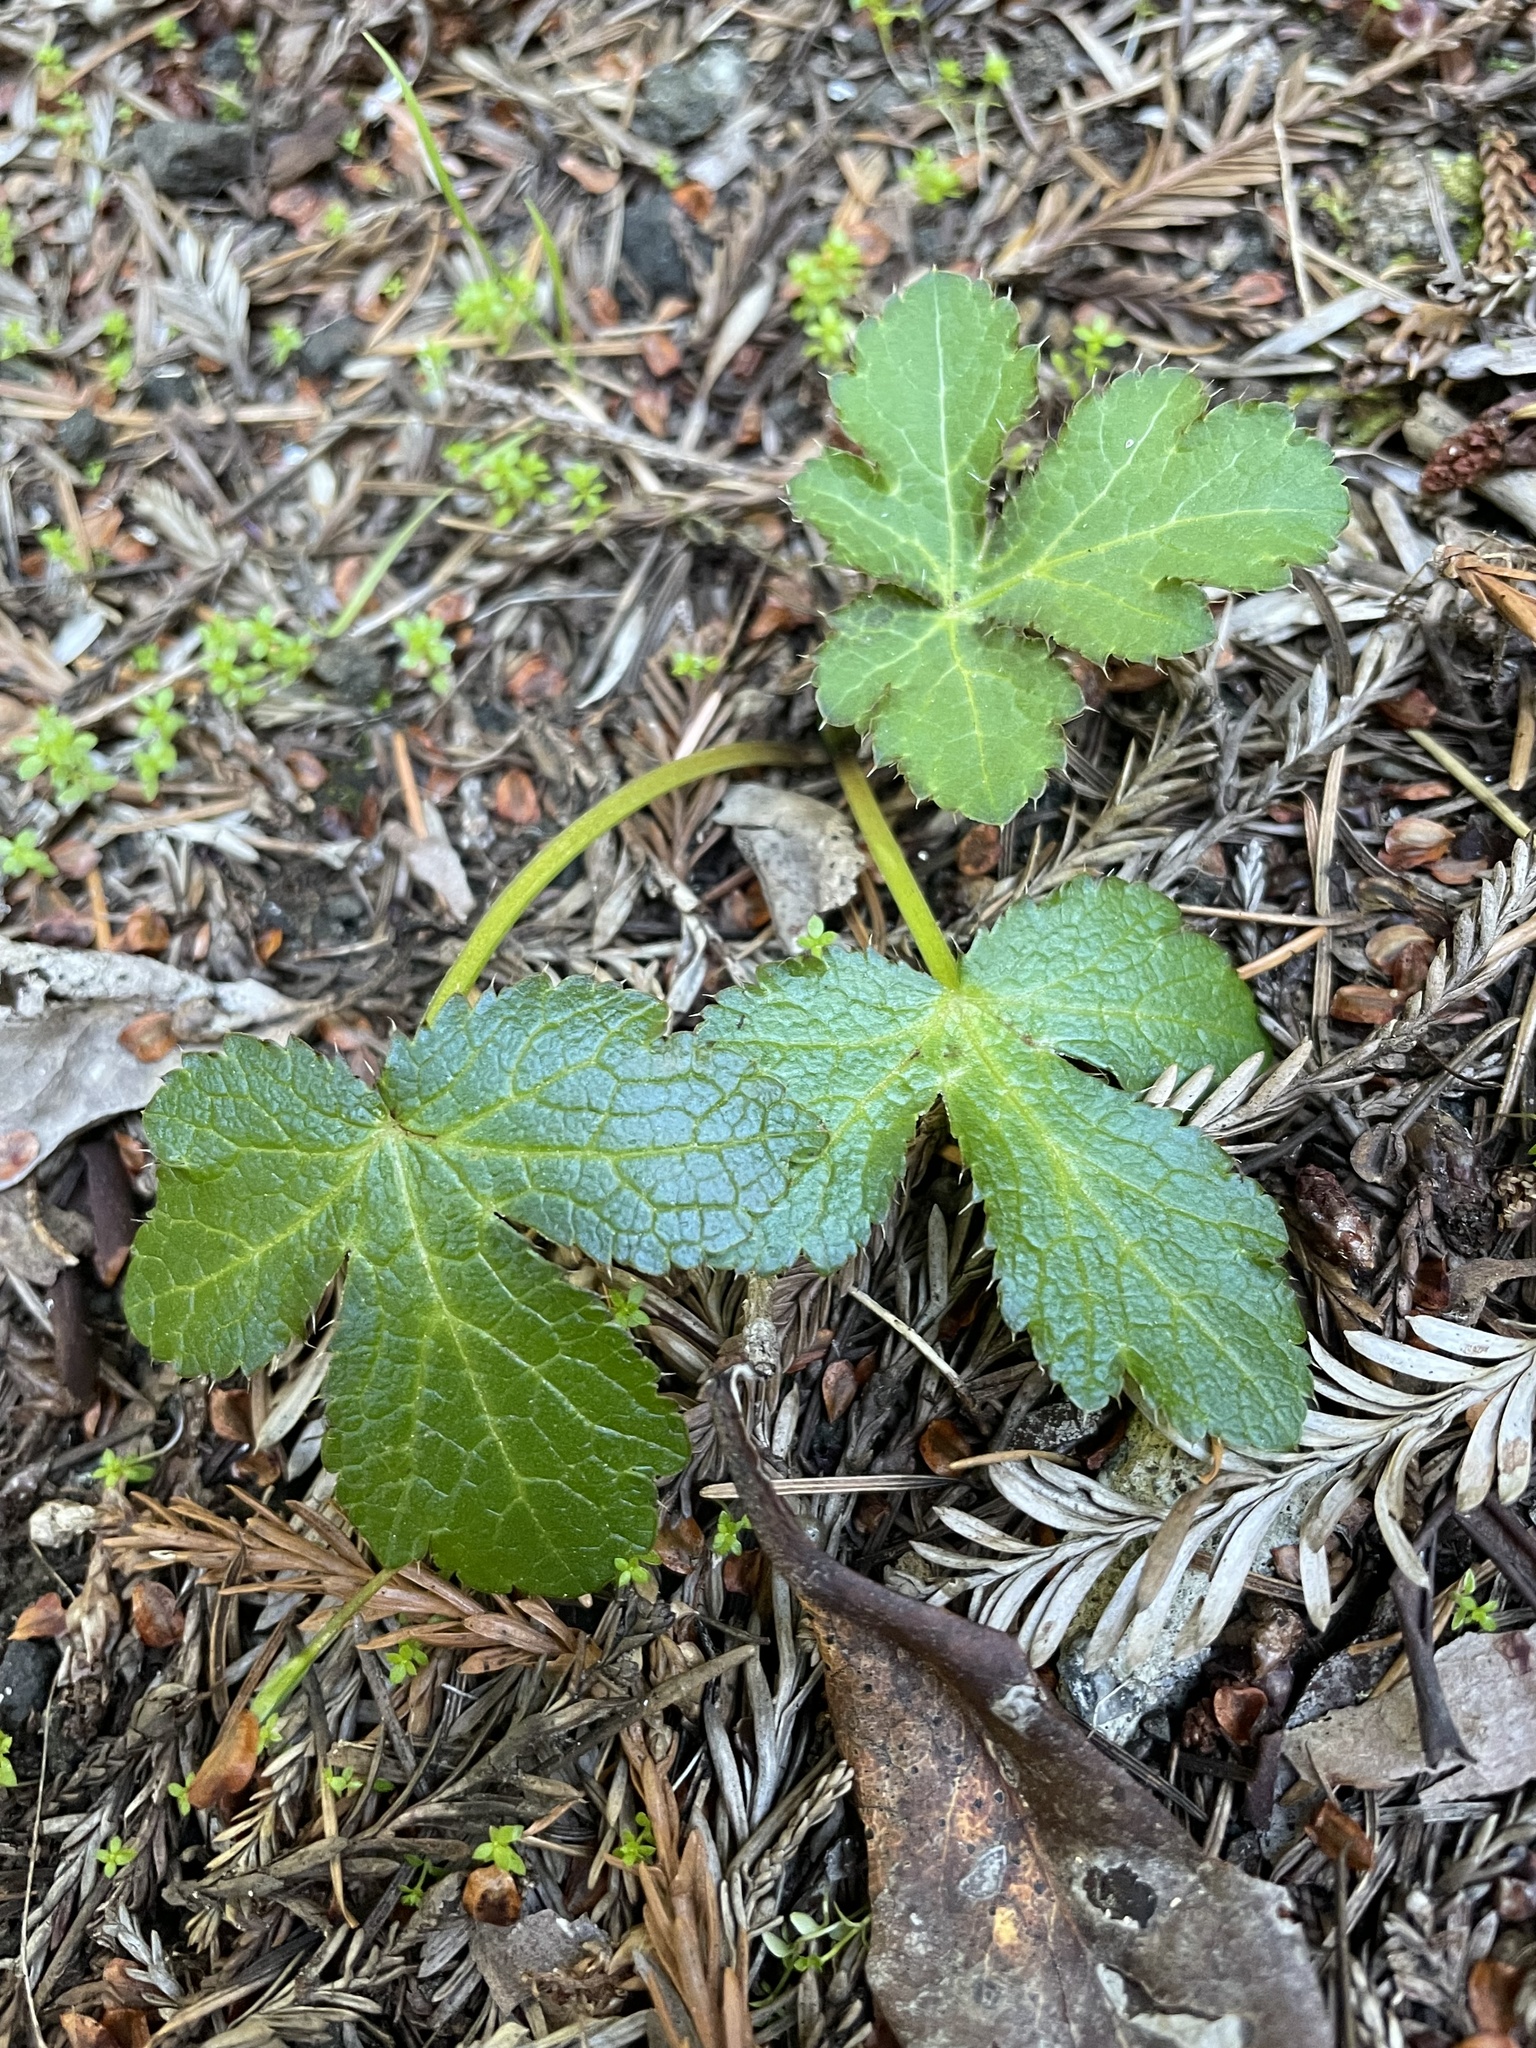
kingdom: Plantae
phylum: Tracheophyta
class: Magnoliopsida
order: Apiales
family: Apiaceae
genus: Sanicula
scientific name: Sanicula crassicaulis
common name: Western snakeroot
